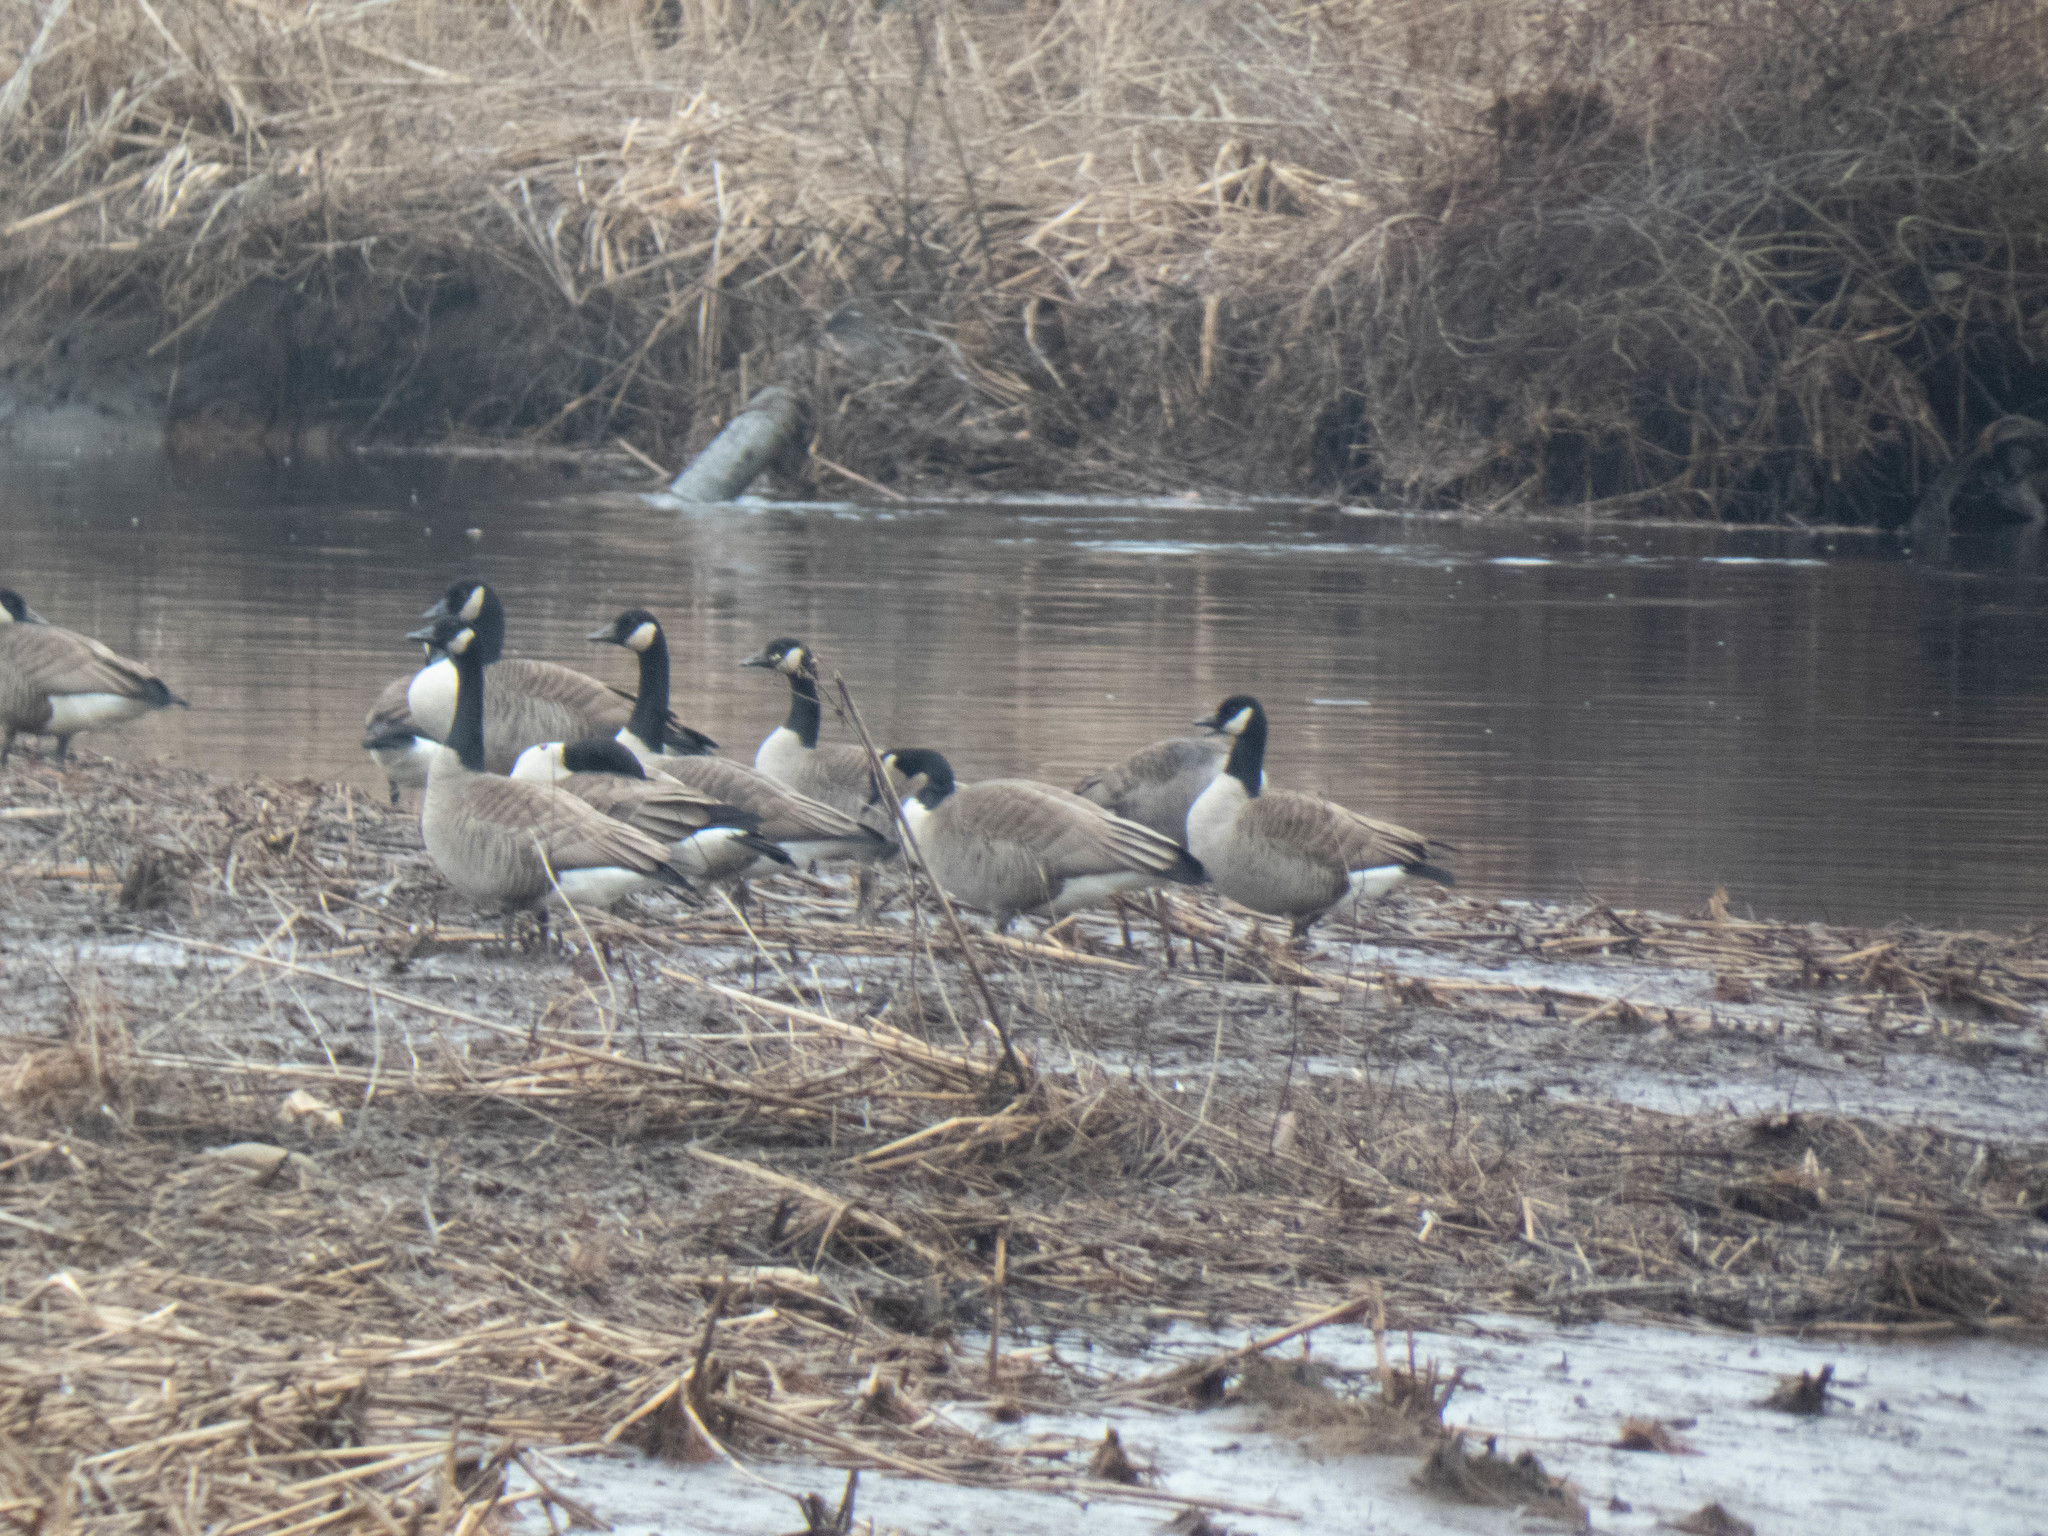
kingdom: Animalia
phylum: Chordata
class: Aves
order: Anseriformes
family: Anatidae
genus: Branta
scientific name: Branta canadensis
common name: Canada goose
